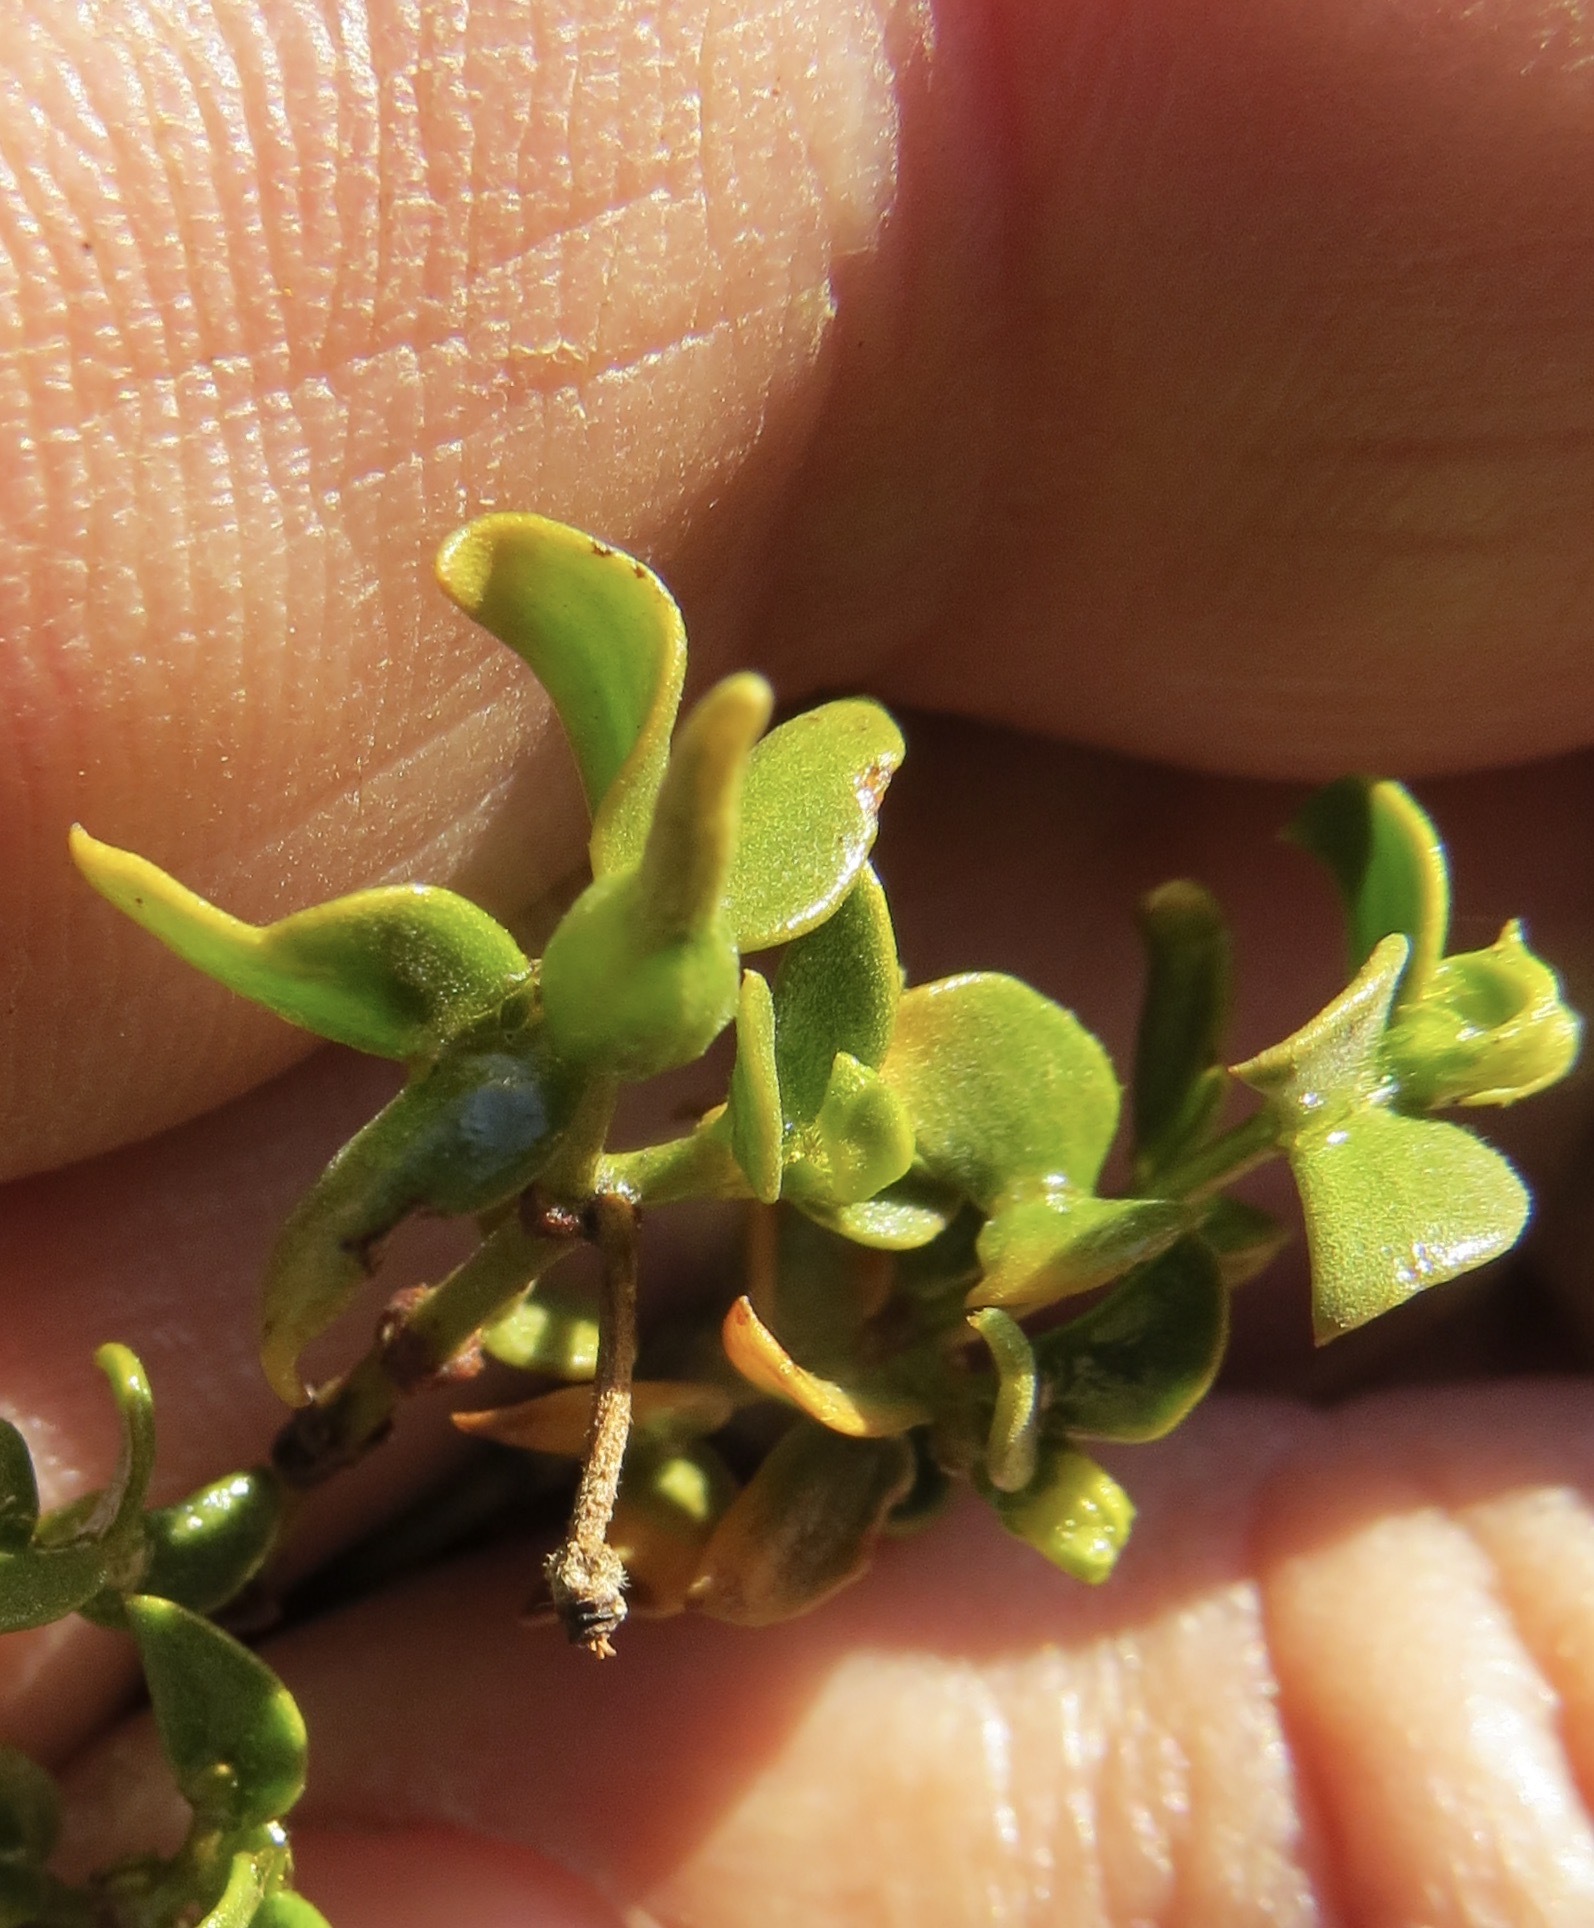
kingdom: Animalia
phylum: Arthropoda
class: Insecta
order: Diptera
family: Cecidomyiidae
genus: Asphondylia
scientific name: Asphondylia apicata
